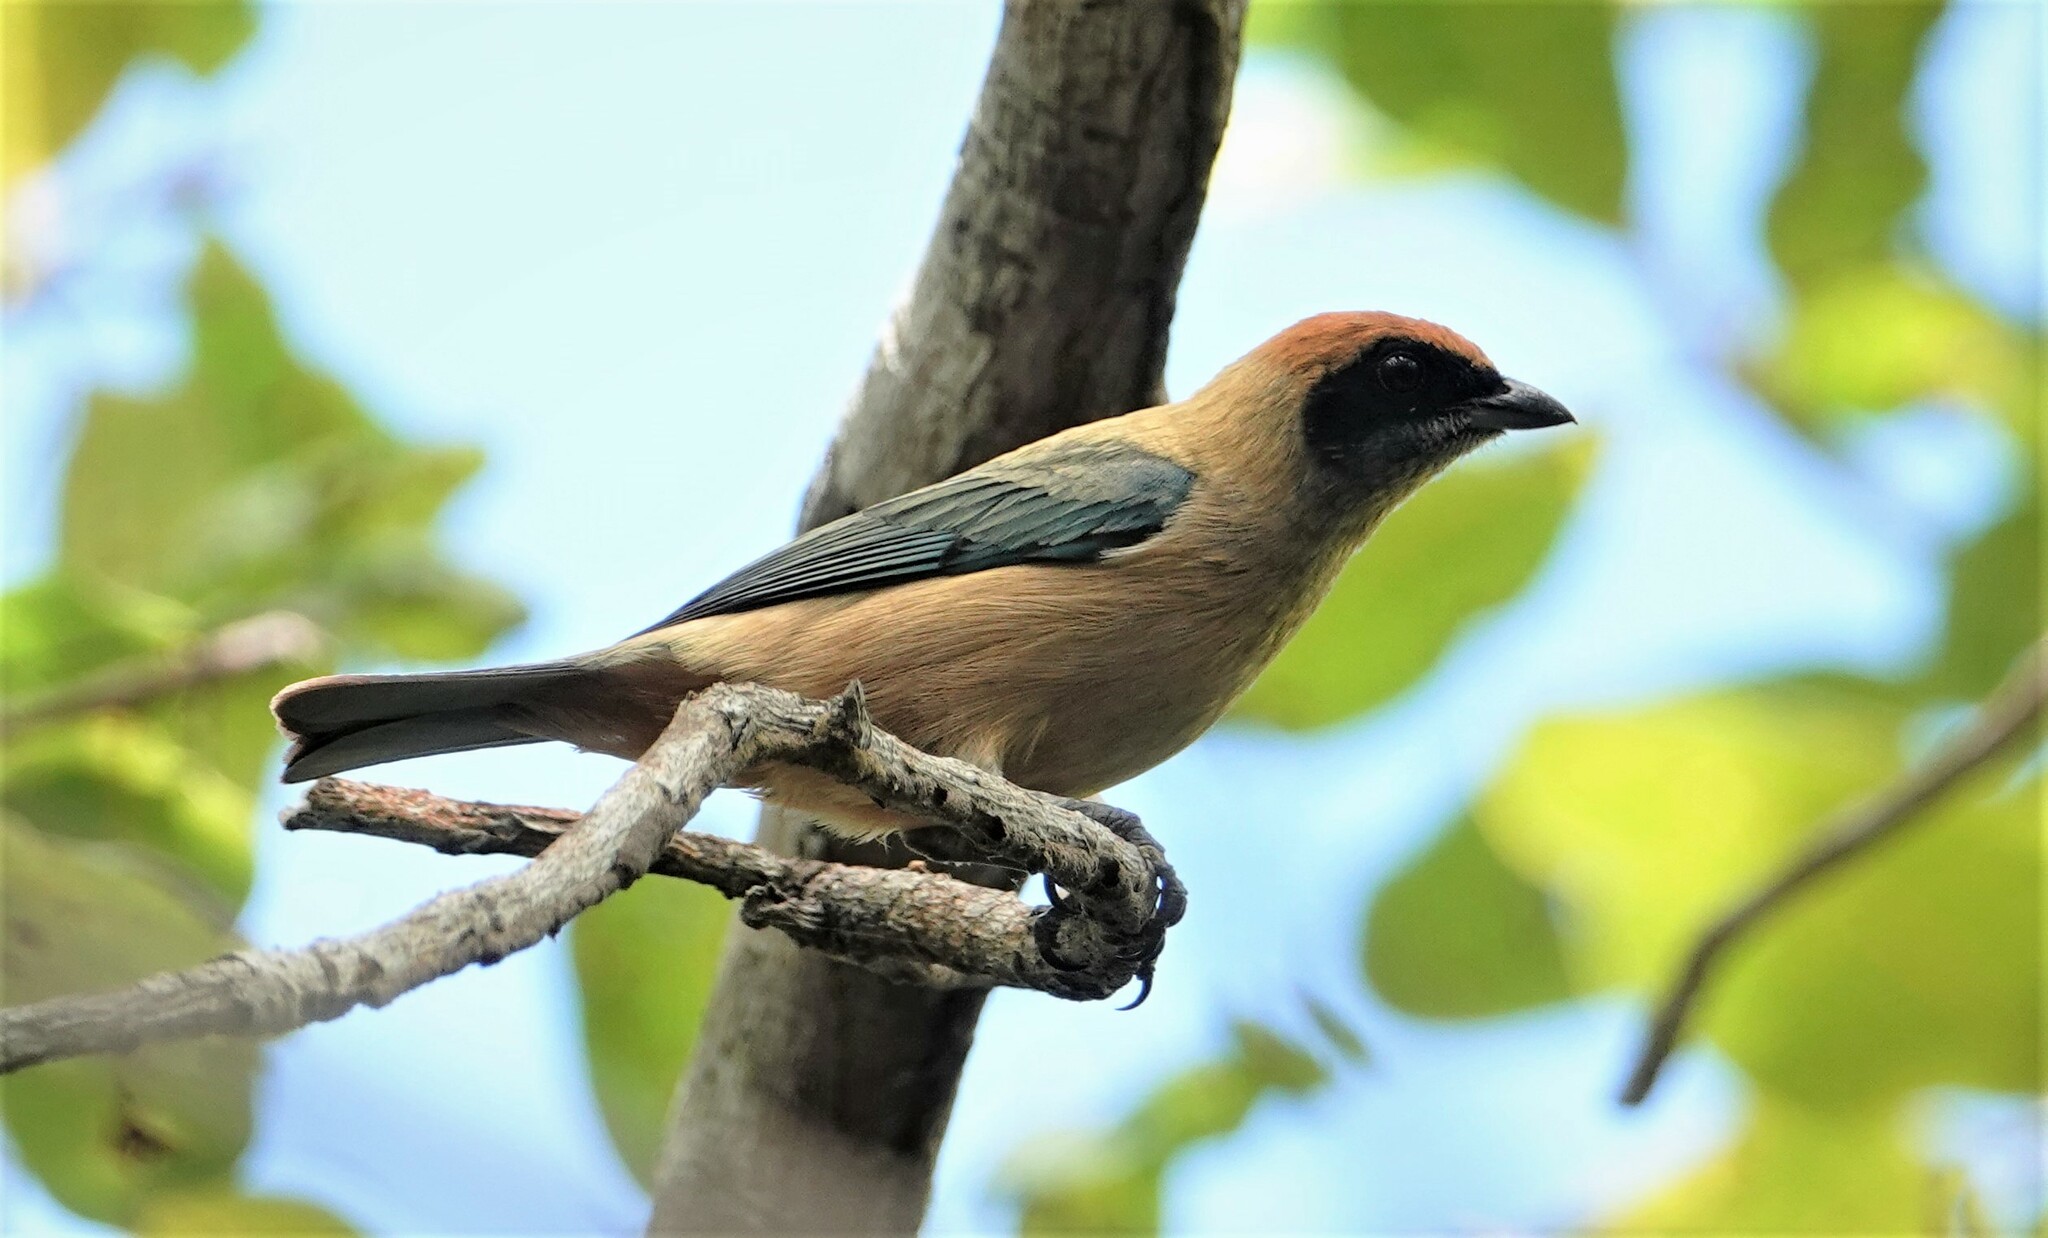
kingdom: Animalia
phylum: Chordata
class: Aves
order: Passeriformes
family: Thraupidae
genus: Stilpnia
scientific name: Stilpnia cayana
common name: Burnished-buff tanager
